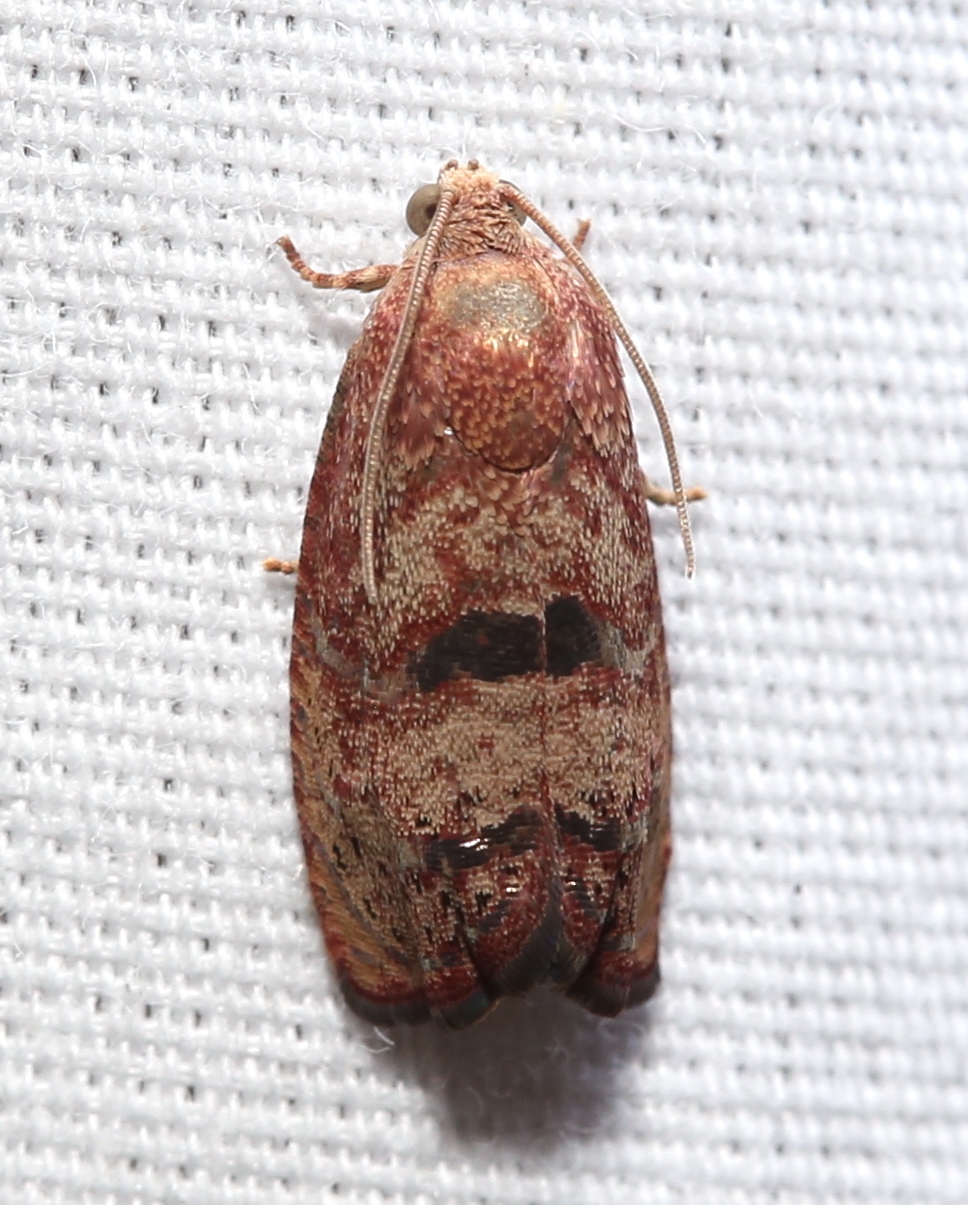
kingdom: Animalia
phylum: Arthropoda
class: Insecta
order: Lepidoptera
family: Tortricidae
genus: Cydia
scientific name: Cydia latiferreana
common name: Filbertworm moth
